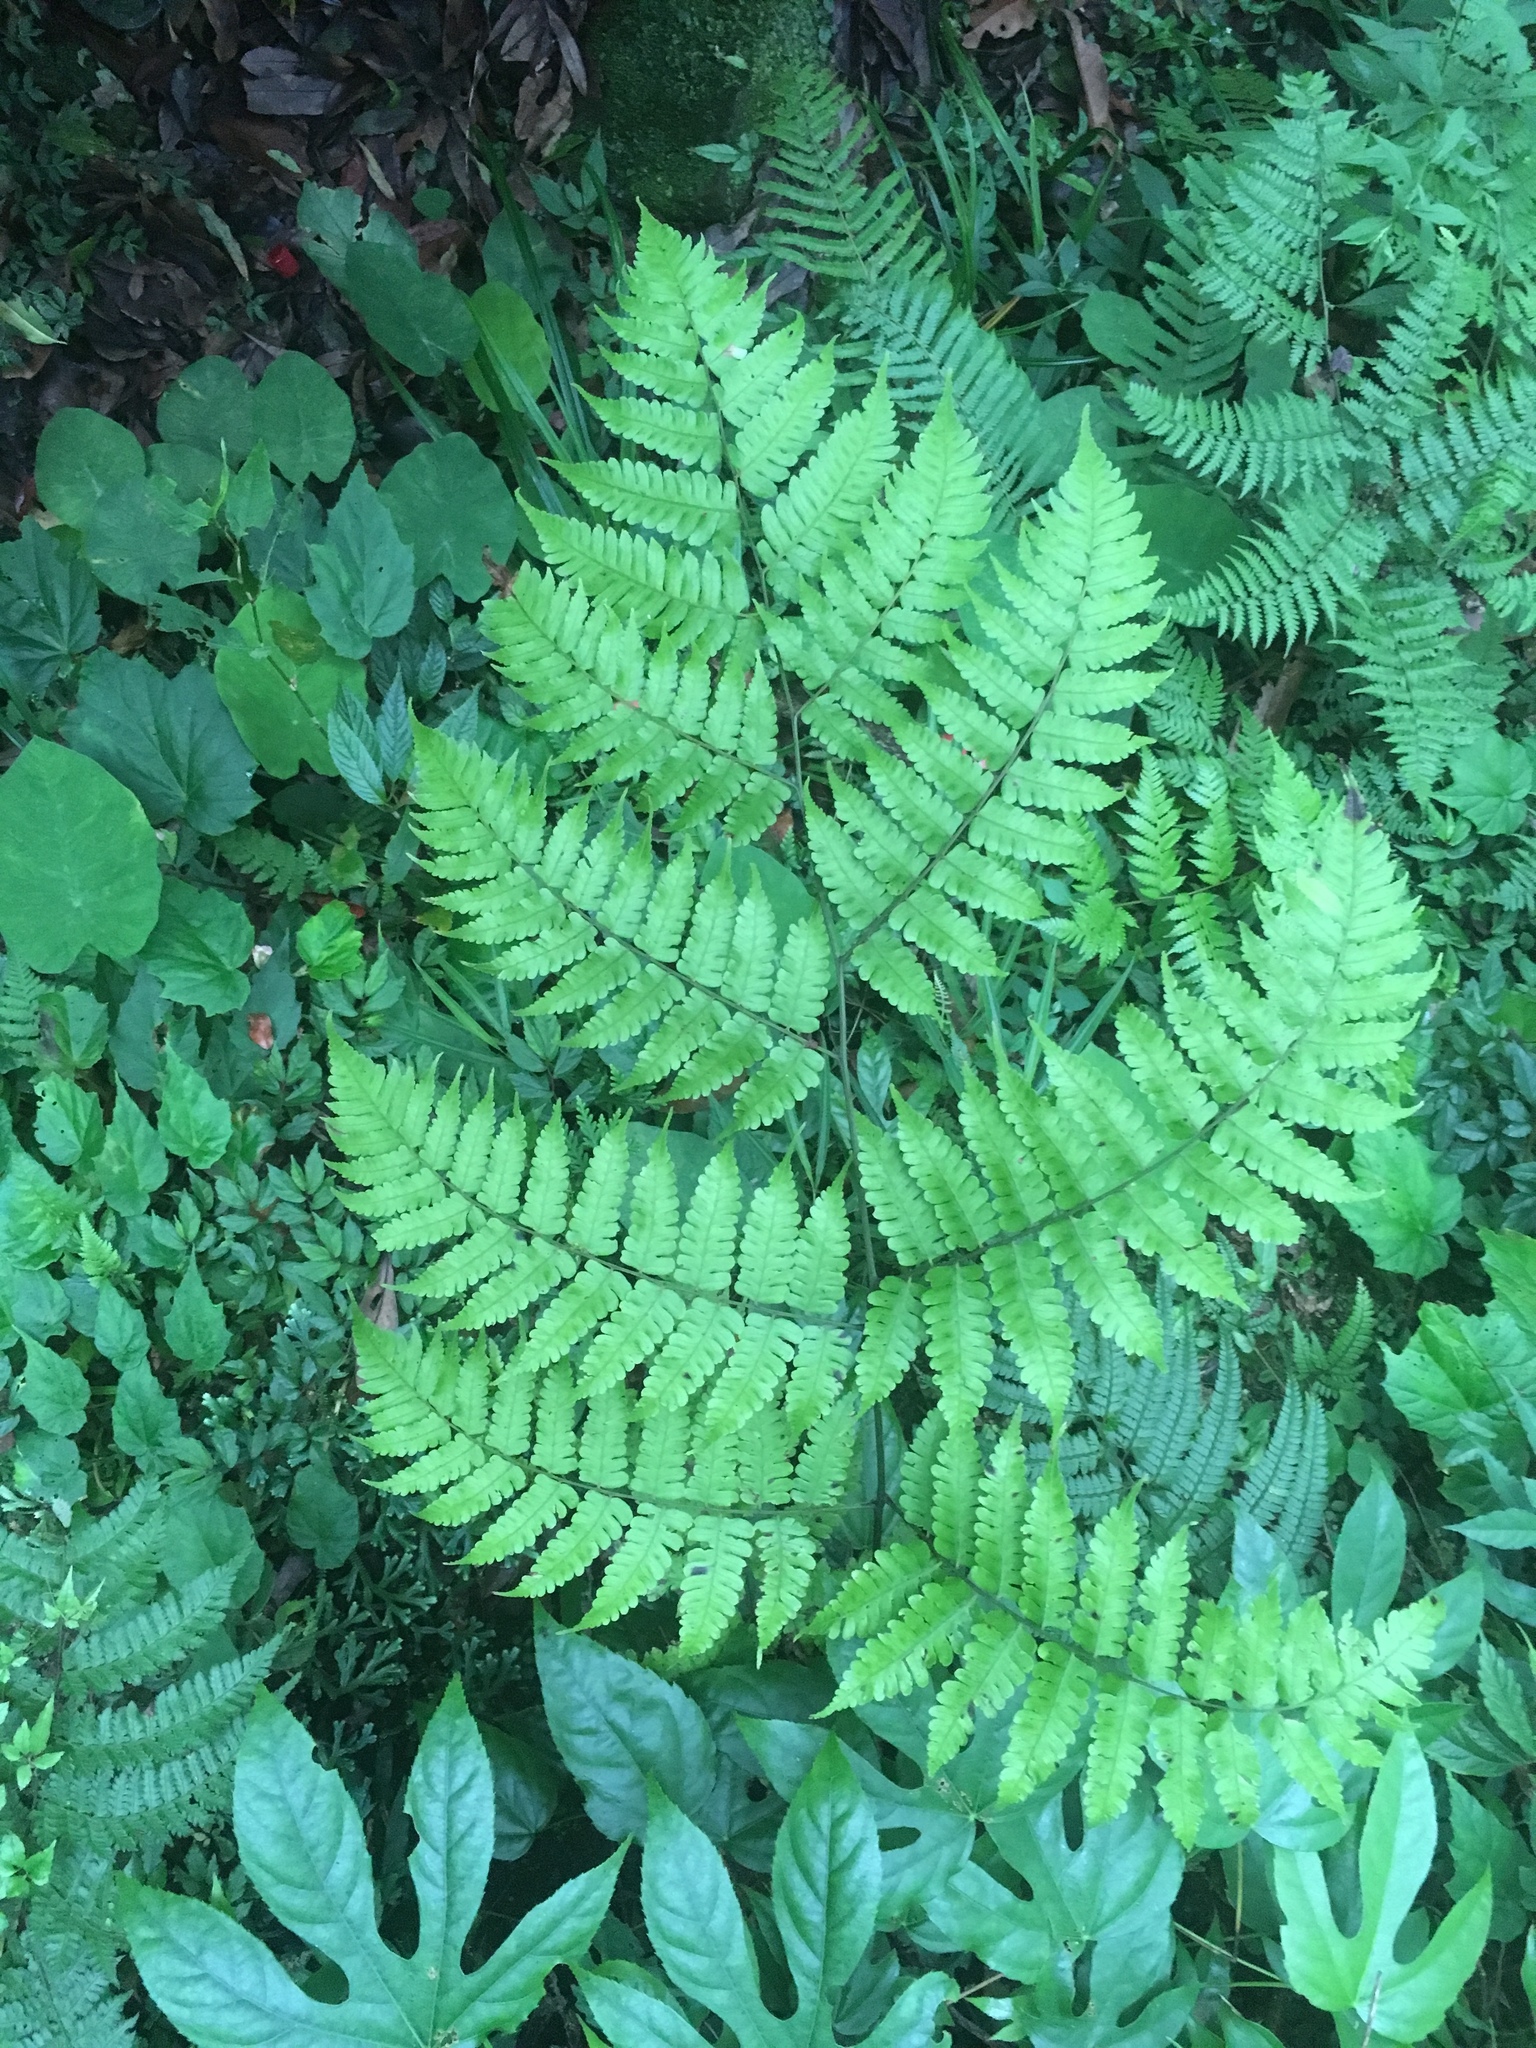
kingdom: Plantae
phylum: Tracheophyta
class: Polypodiopsida
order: Polypodiales
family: Athyriaceae
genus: Diplazium
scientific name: Diplazium doederleinii
